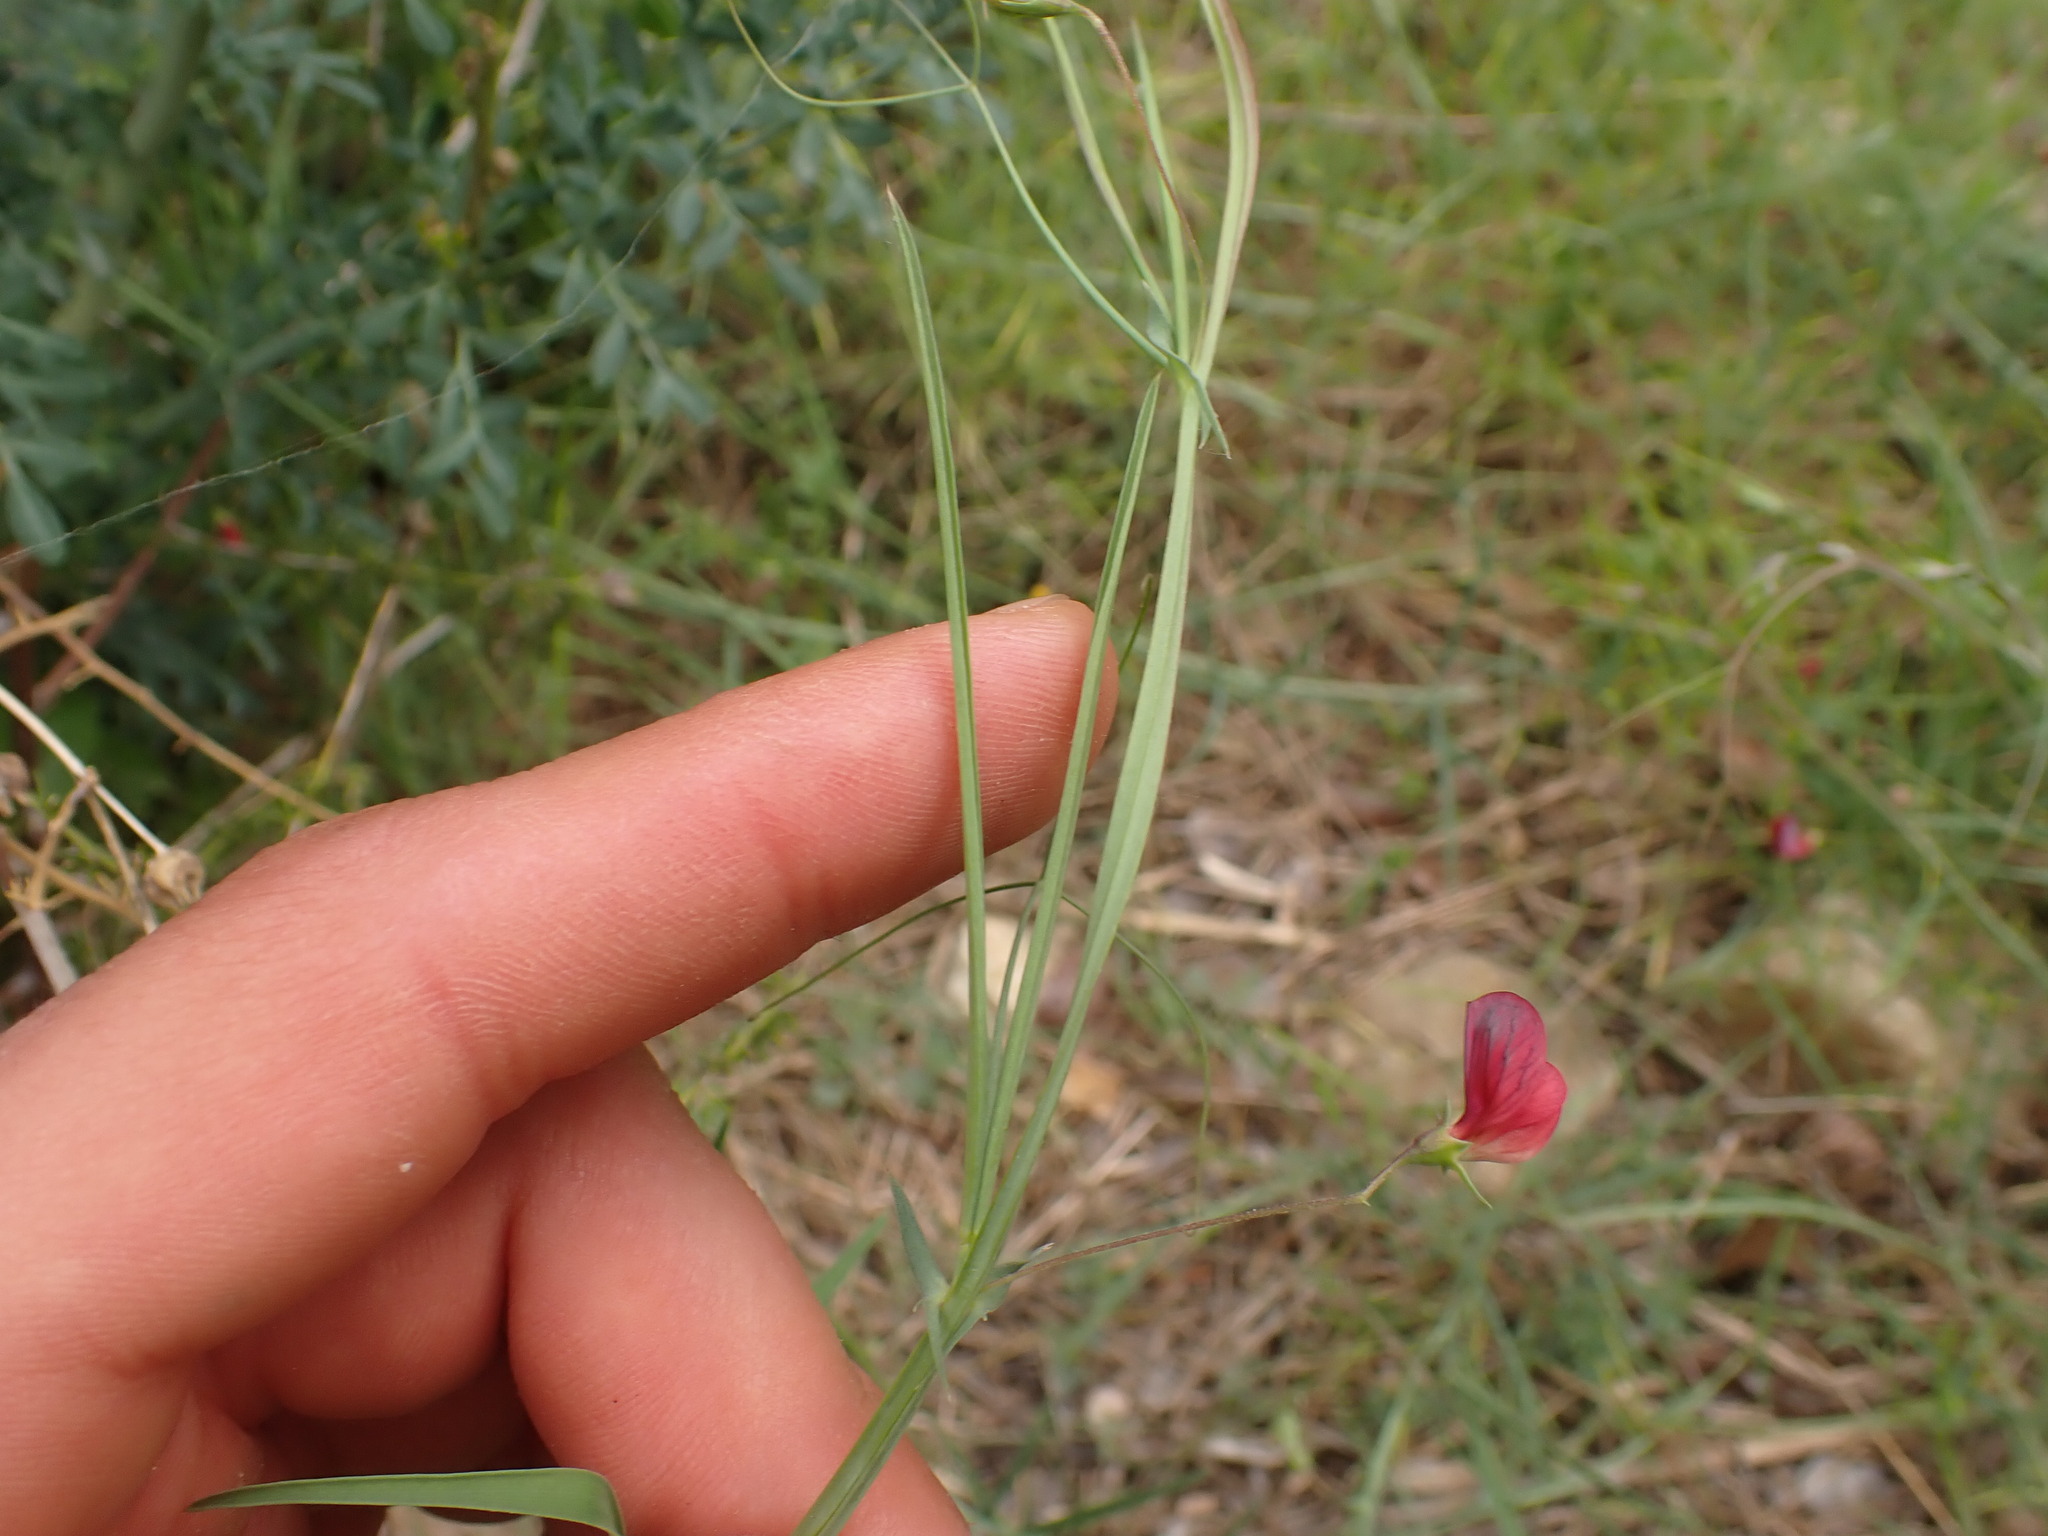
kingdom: Plantae
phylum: Tracheophyta
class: Magnoliopsida
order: Fabales
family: Fabaceae
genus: Lathyrus
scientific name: Lathyrus setifolius
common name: Brown vetchling
